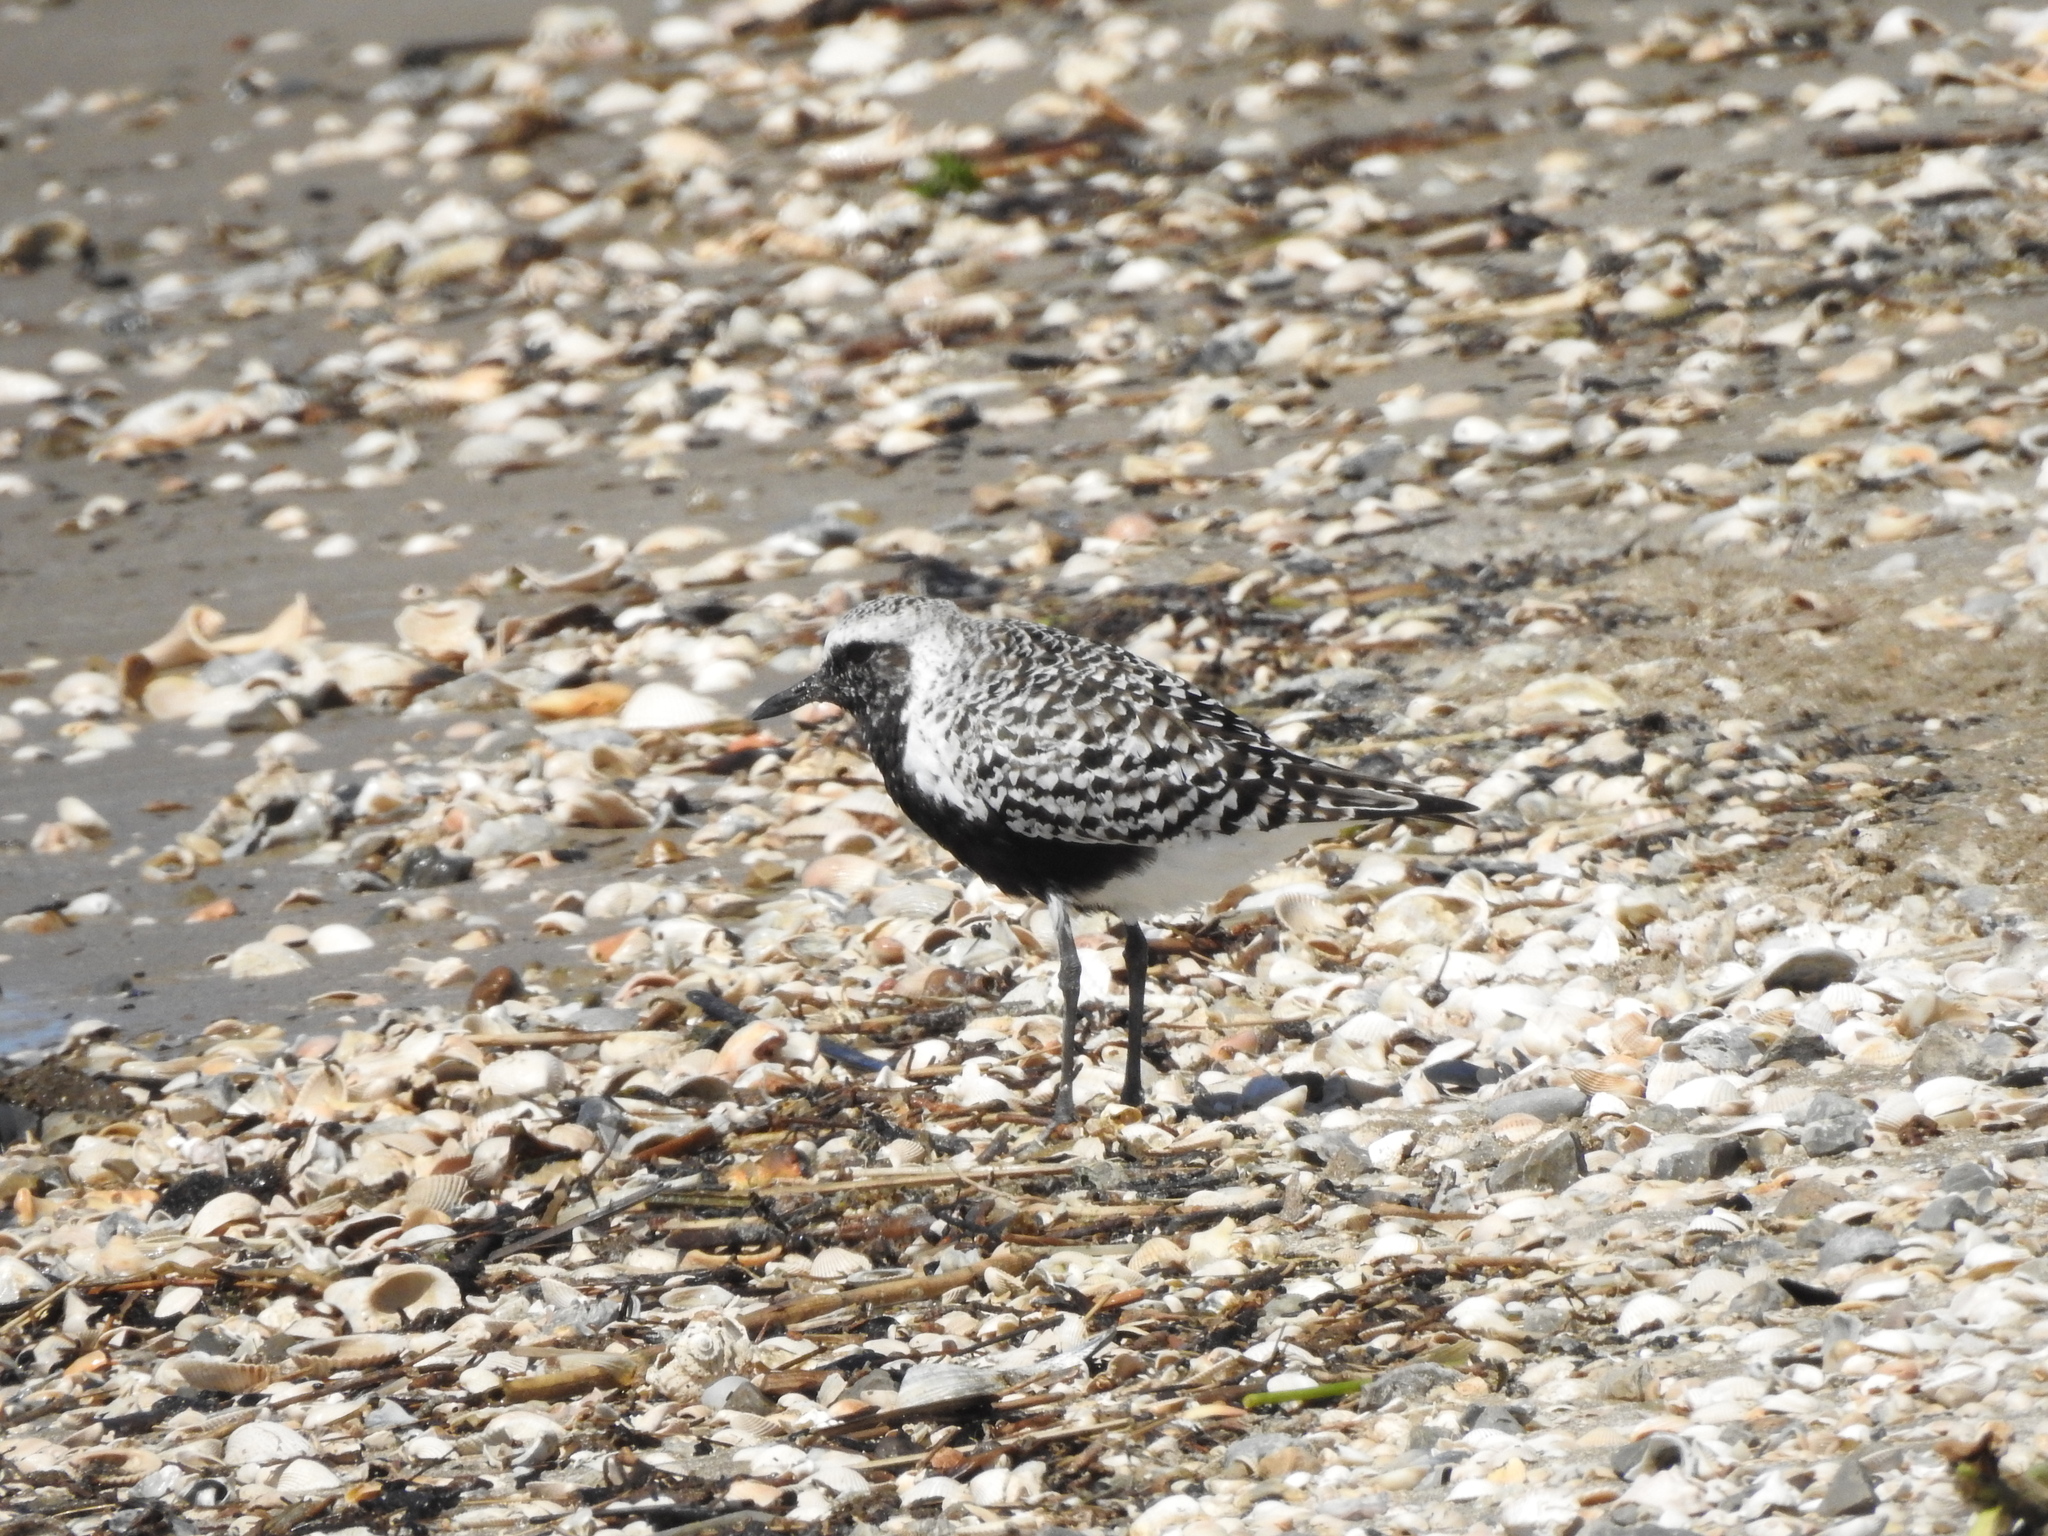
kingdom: Animalia
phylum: Chordata
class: Aves
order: Charadriiformes
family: Charadriidae
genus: Pluvialis
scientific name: Pluvialis squatarola
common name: Grey plover
